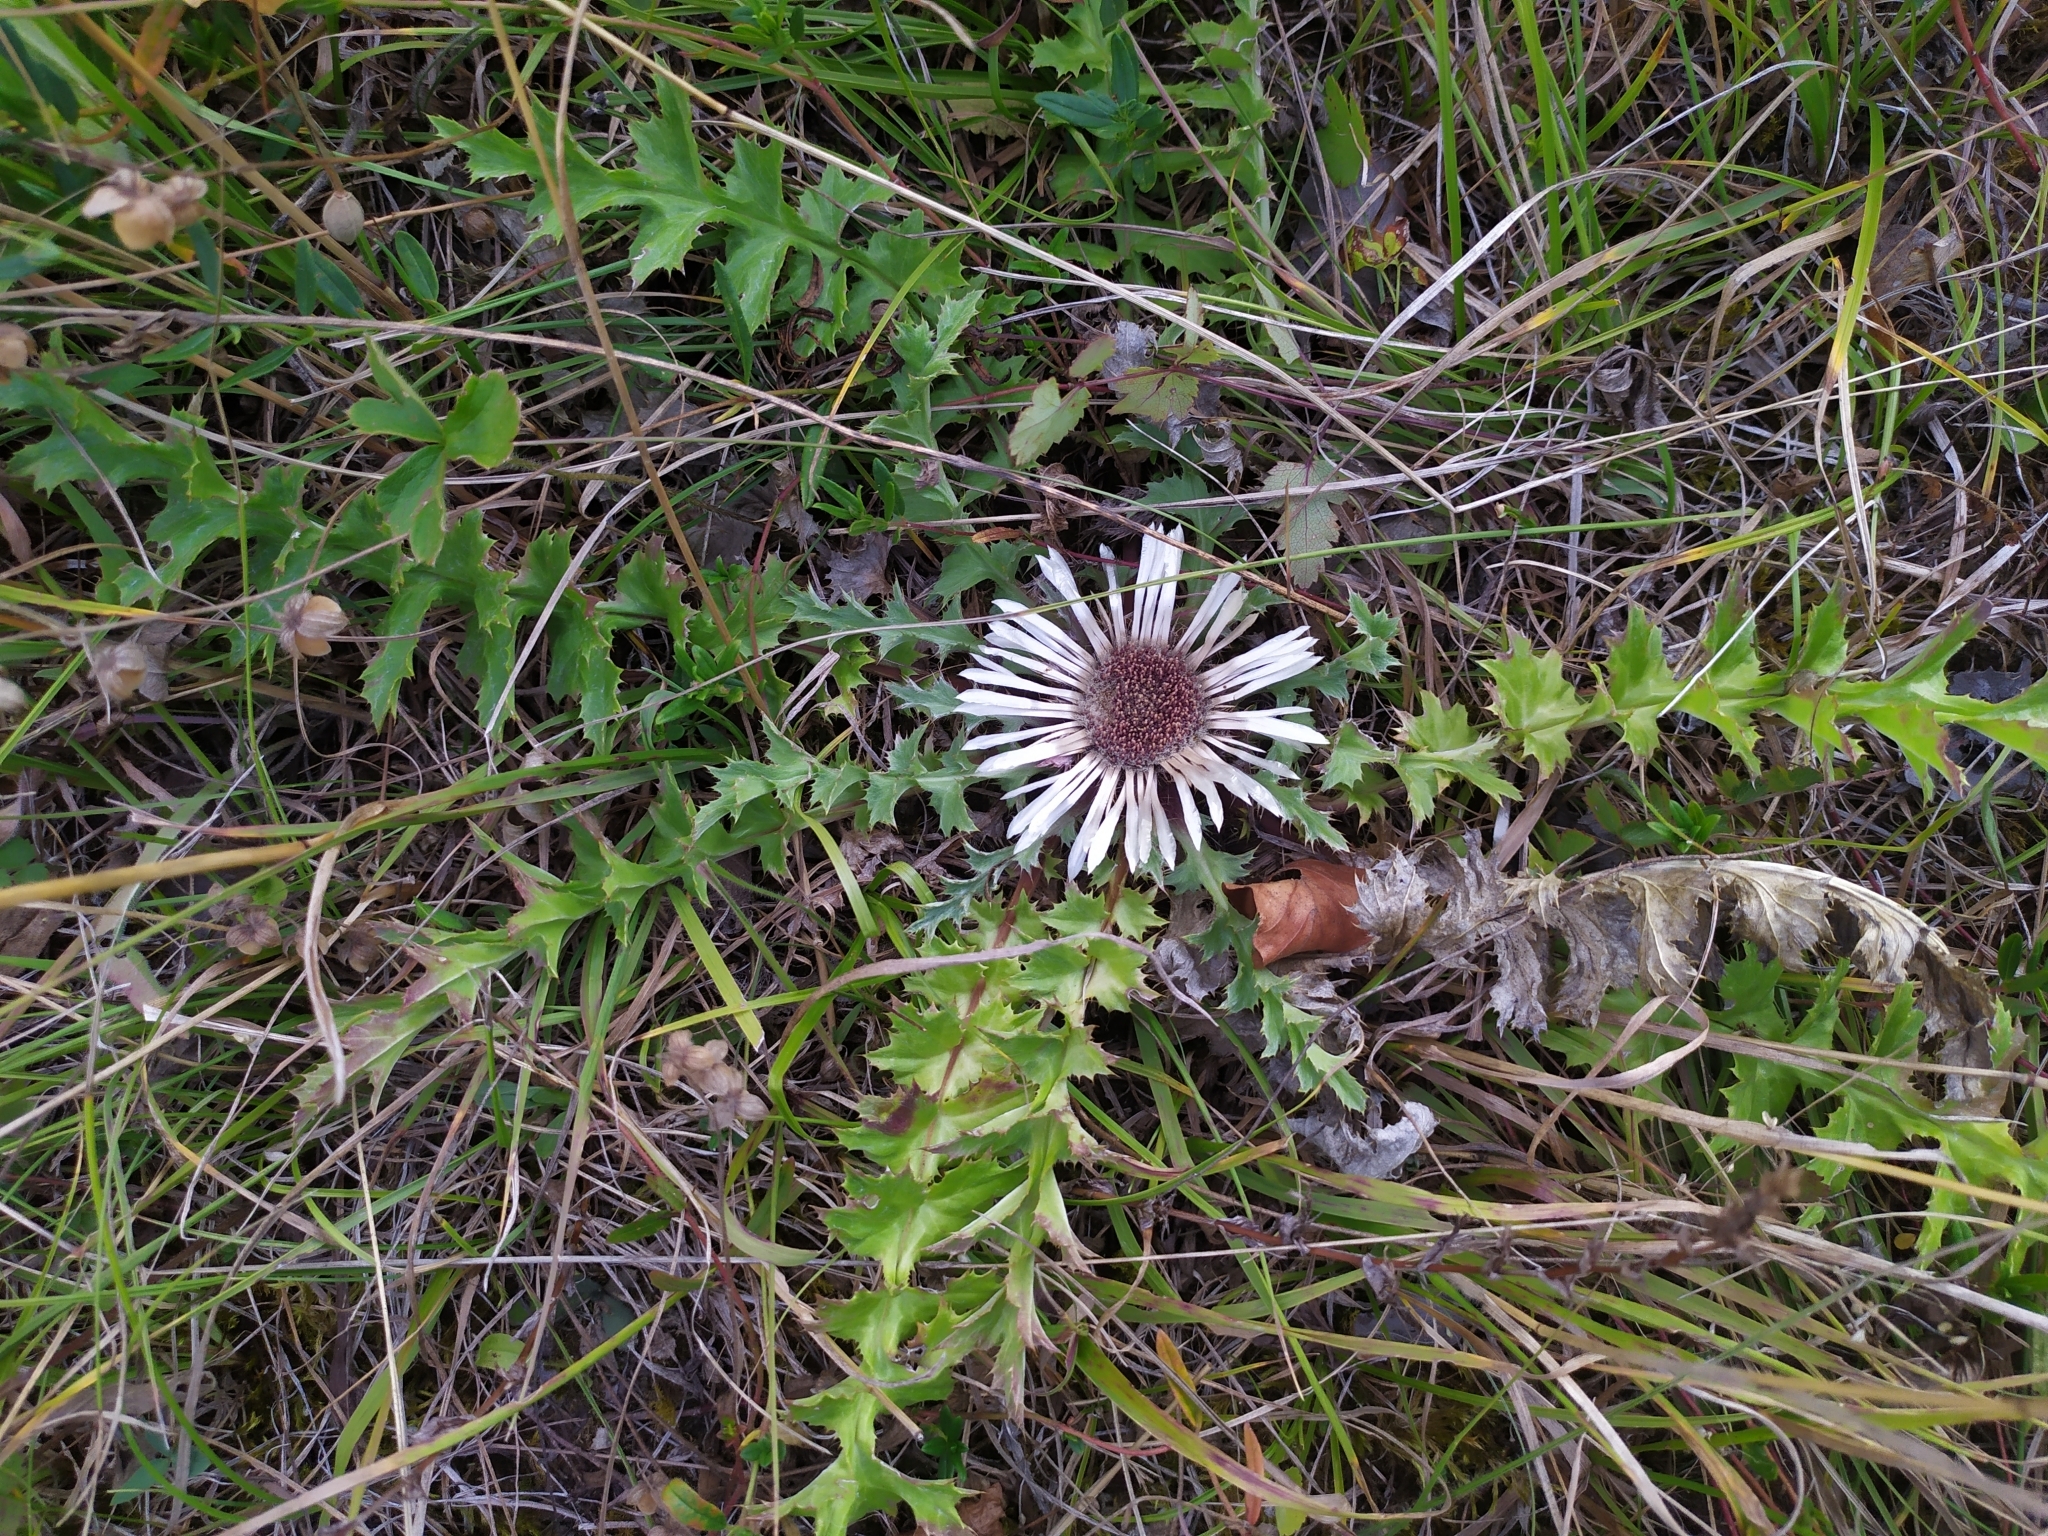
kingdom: Plantae
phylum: Tracheophyta
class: Magnoliopsida
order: Asterales
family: Asteraceae
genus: Carlina
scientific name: Carlina acaulis
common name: Stemless carline thistle
